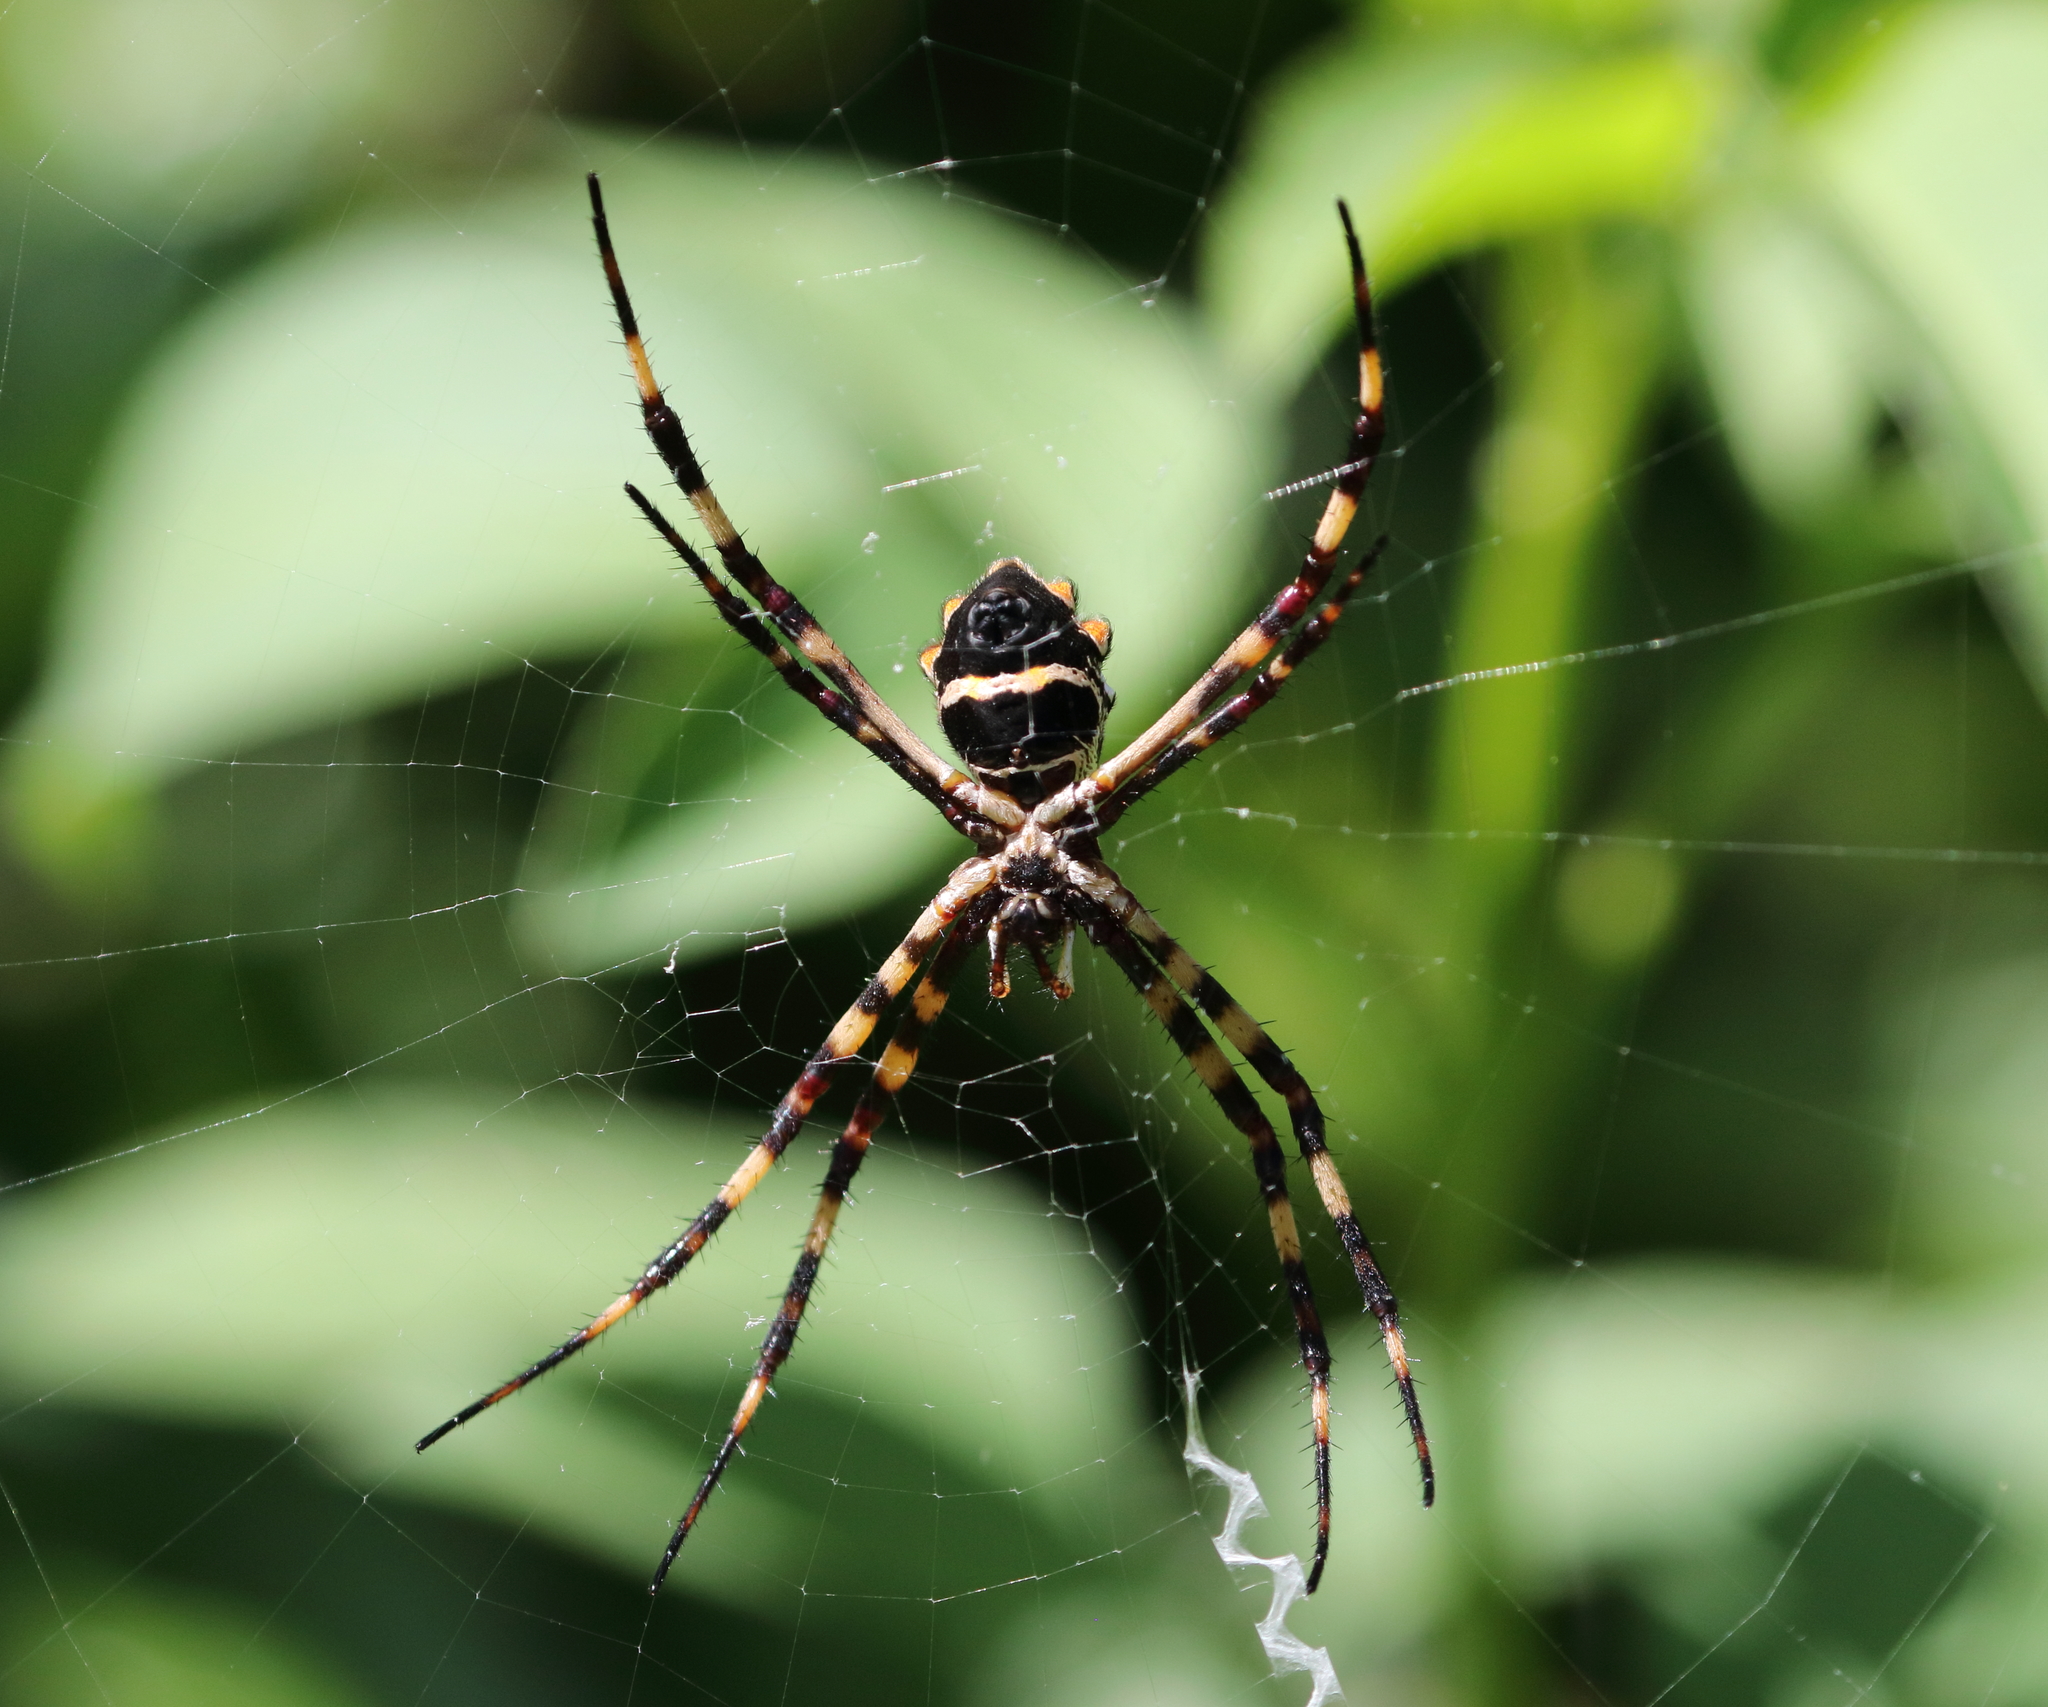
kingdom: Animalia
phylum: Arthropoda
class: Arachnida
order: Araneae
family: Araneidae
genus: Argiope
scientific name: Argiope argentata
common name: Orb weavers
